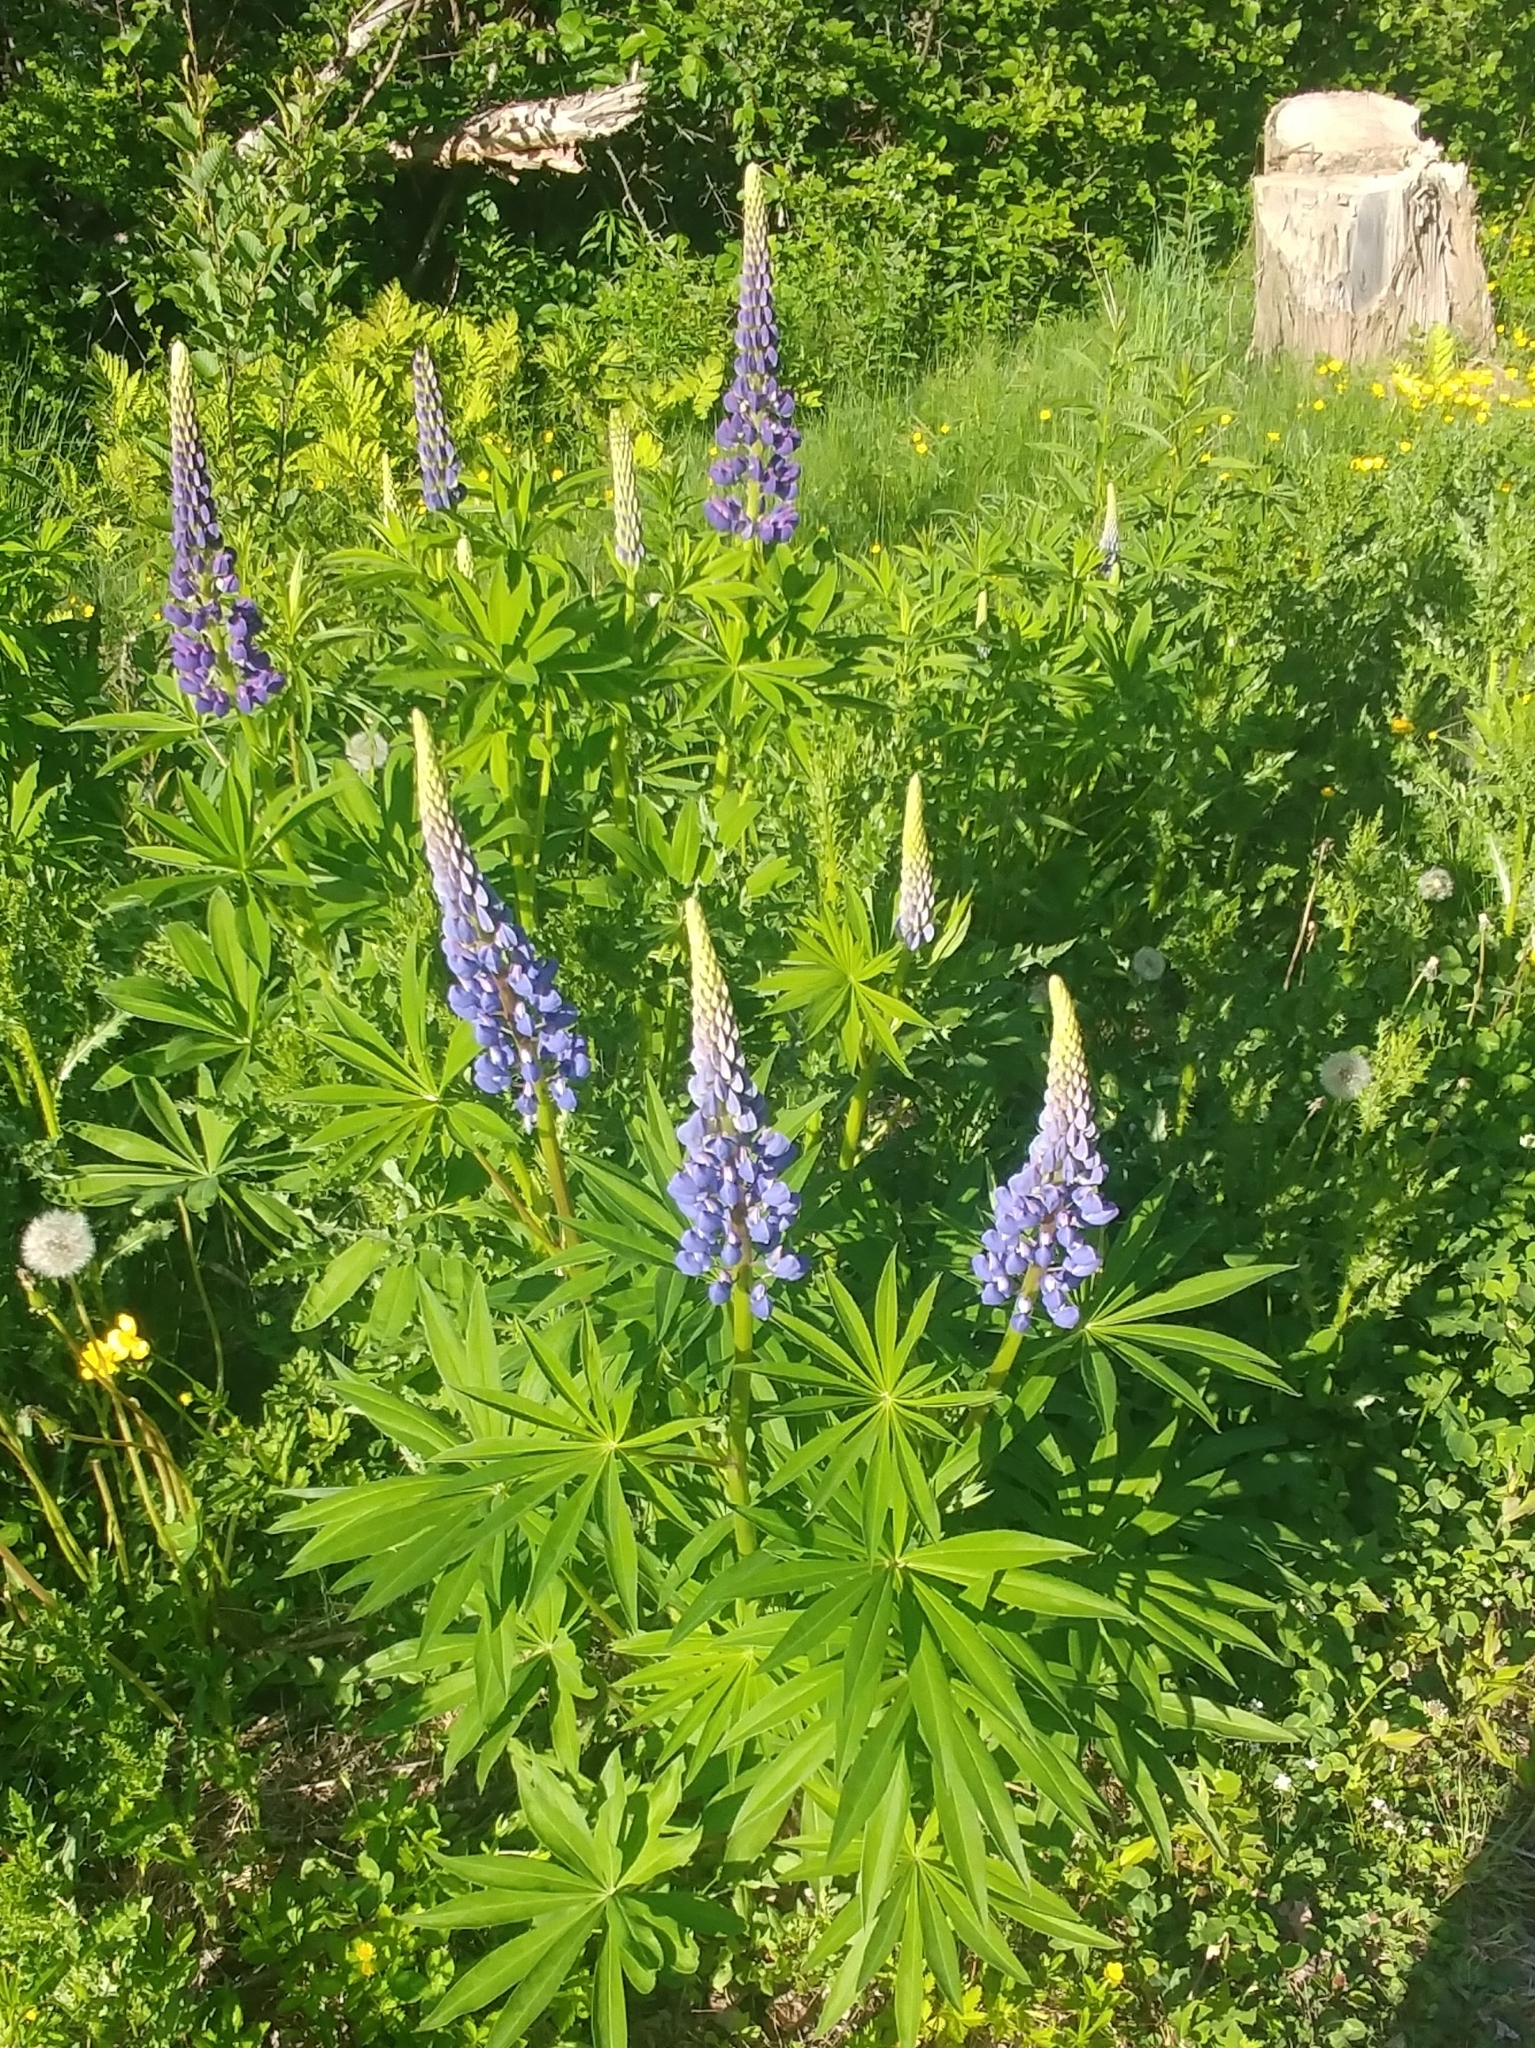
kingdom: Plantae
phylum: Tracheophyta
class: Magnoliopsida
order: Fabales
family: Fabaceae
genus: Lupinus
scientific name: Lupinus polyphyllus
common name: Garden lupin
